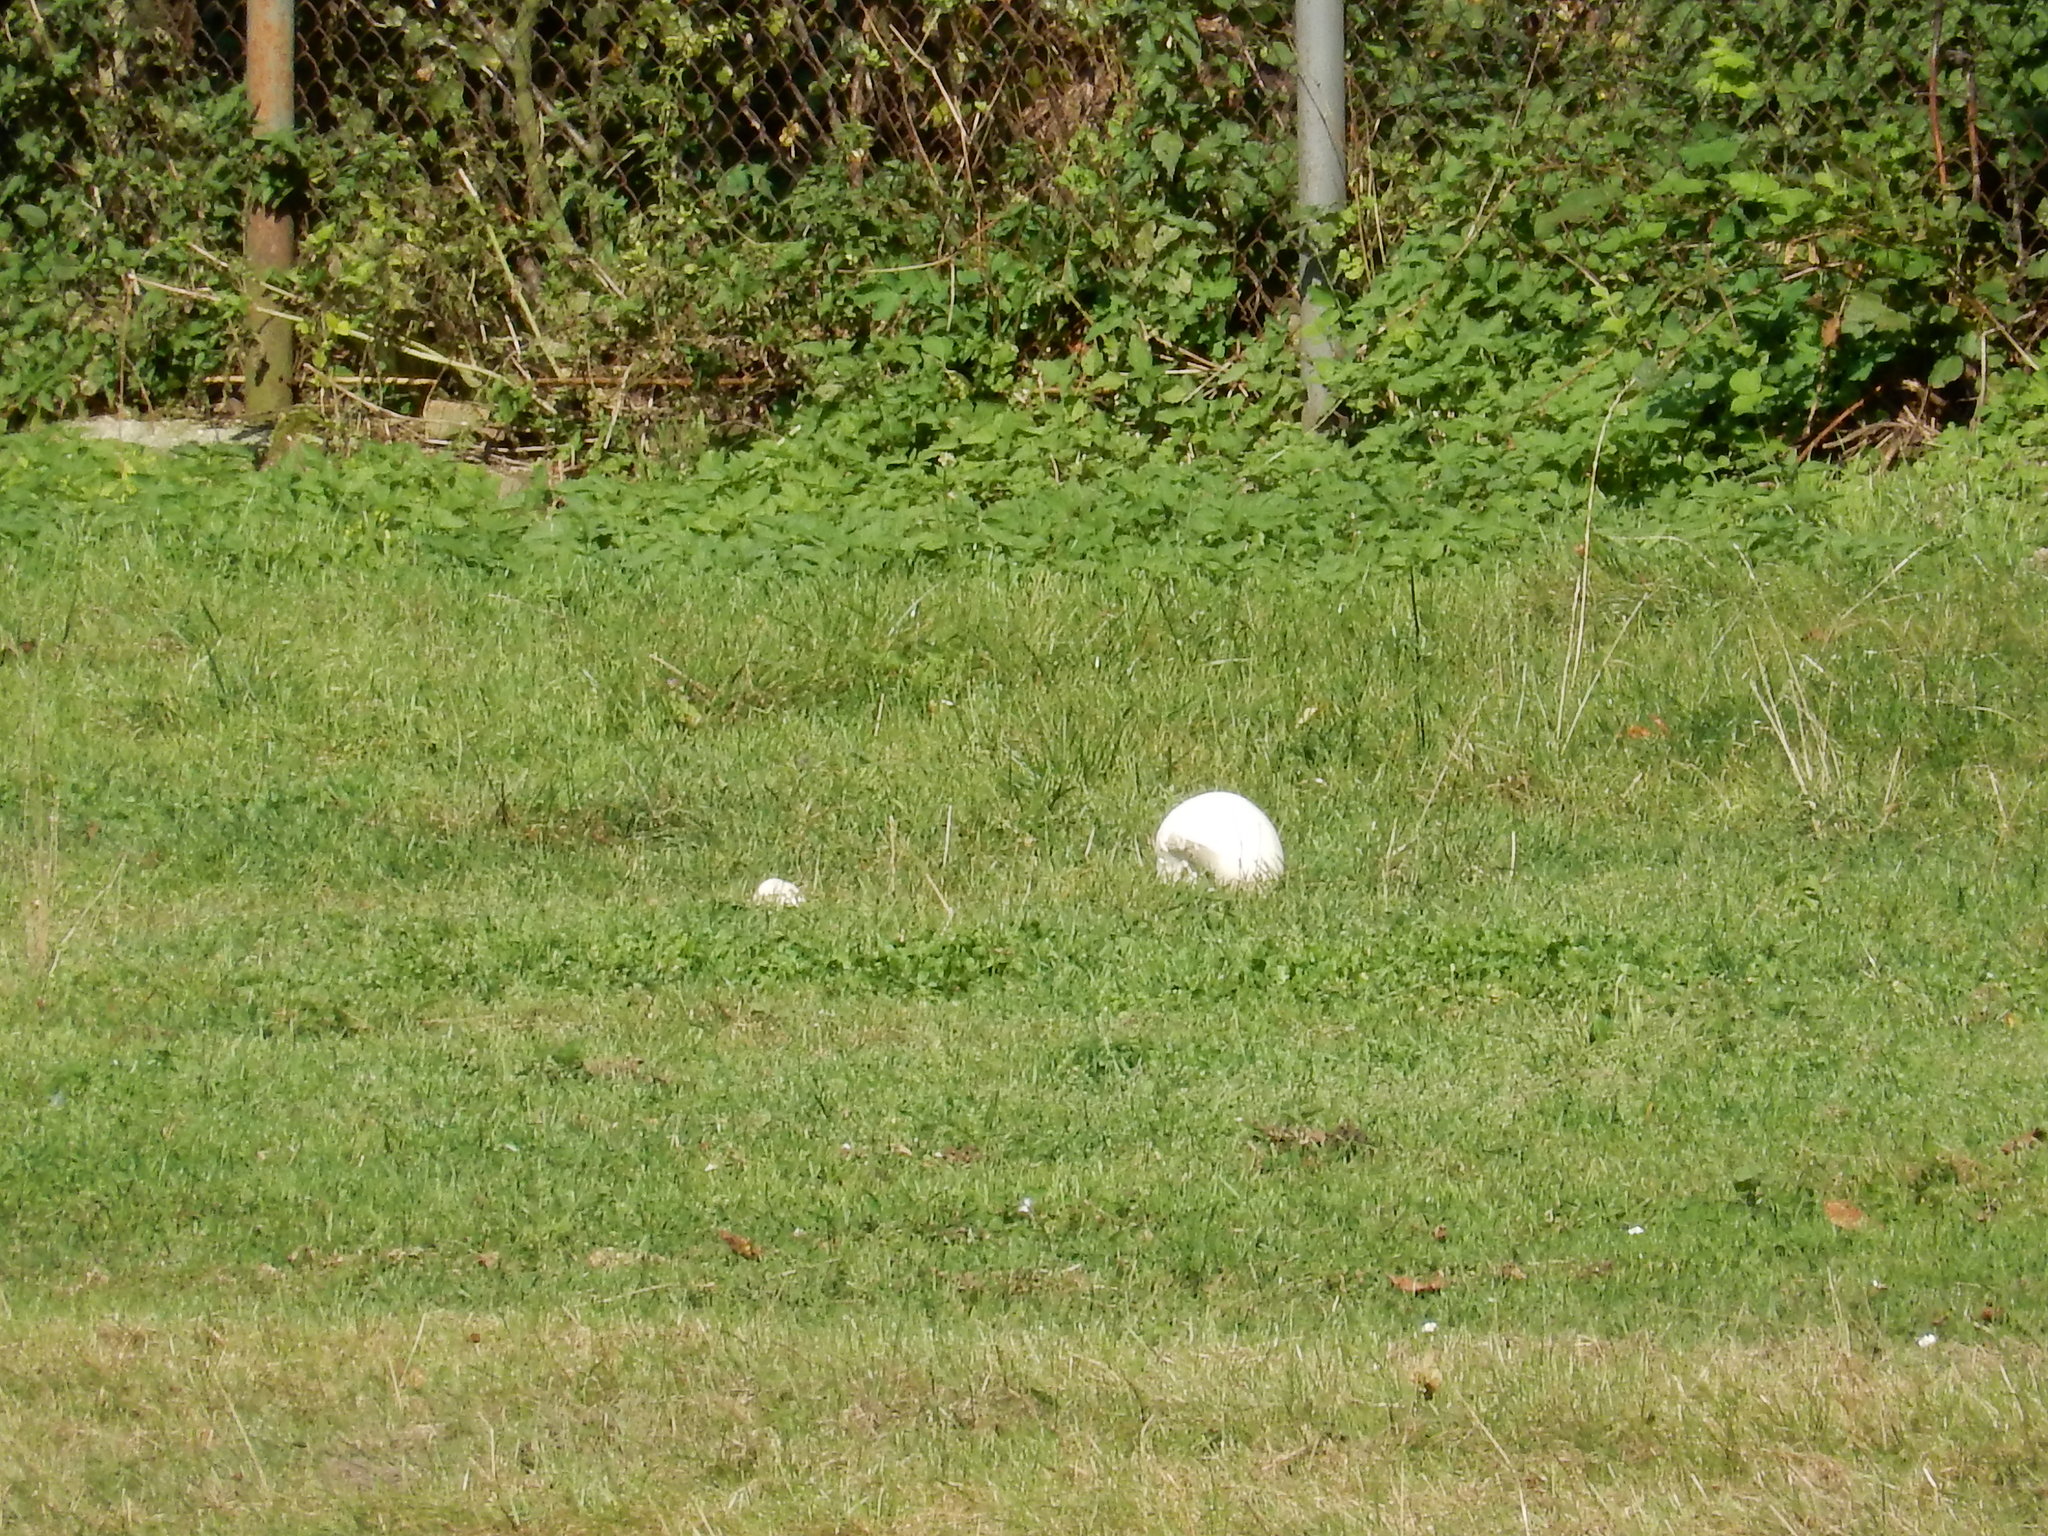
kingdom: Fungi
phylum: Basidiomycota
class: Agaricomycetes
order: Agaricales
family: Lycoperdaceae
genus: Calvatia
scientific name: Calvatia gigantea
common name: Giant puffball
